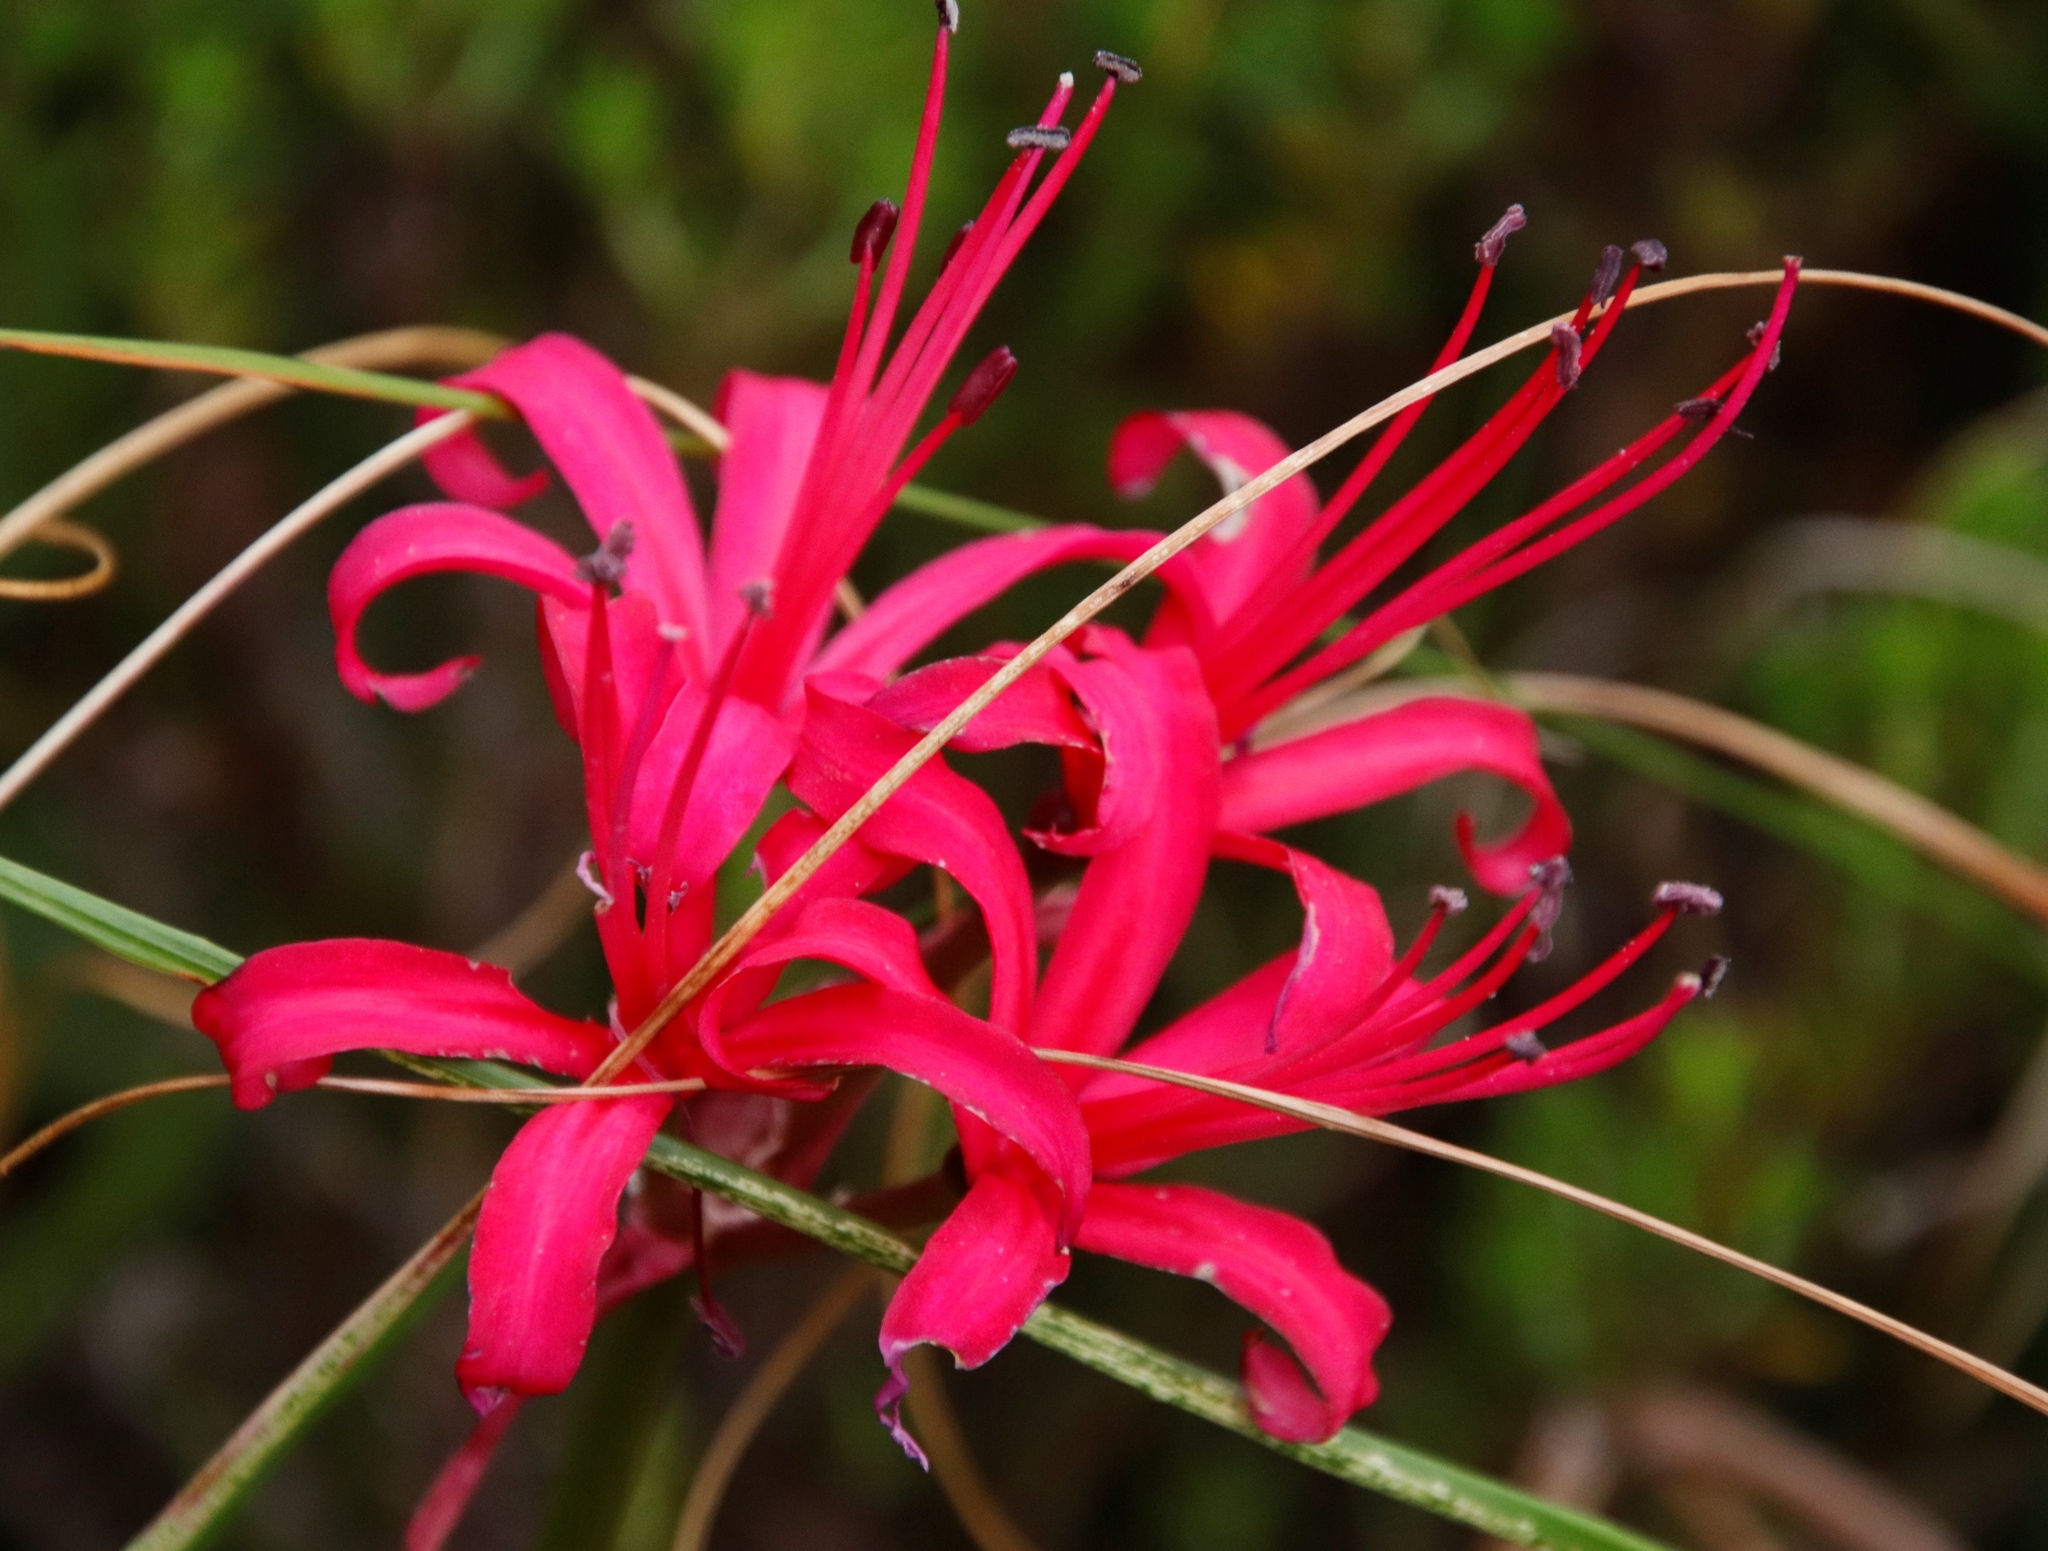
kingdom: Plantae
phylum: Tracheophyta
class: Liliopsida
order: Asparagales
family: Amaryllidaceae
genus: Nerine
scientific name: Nerine sarniensis
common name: Guernsey-lily
